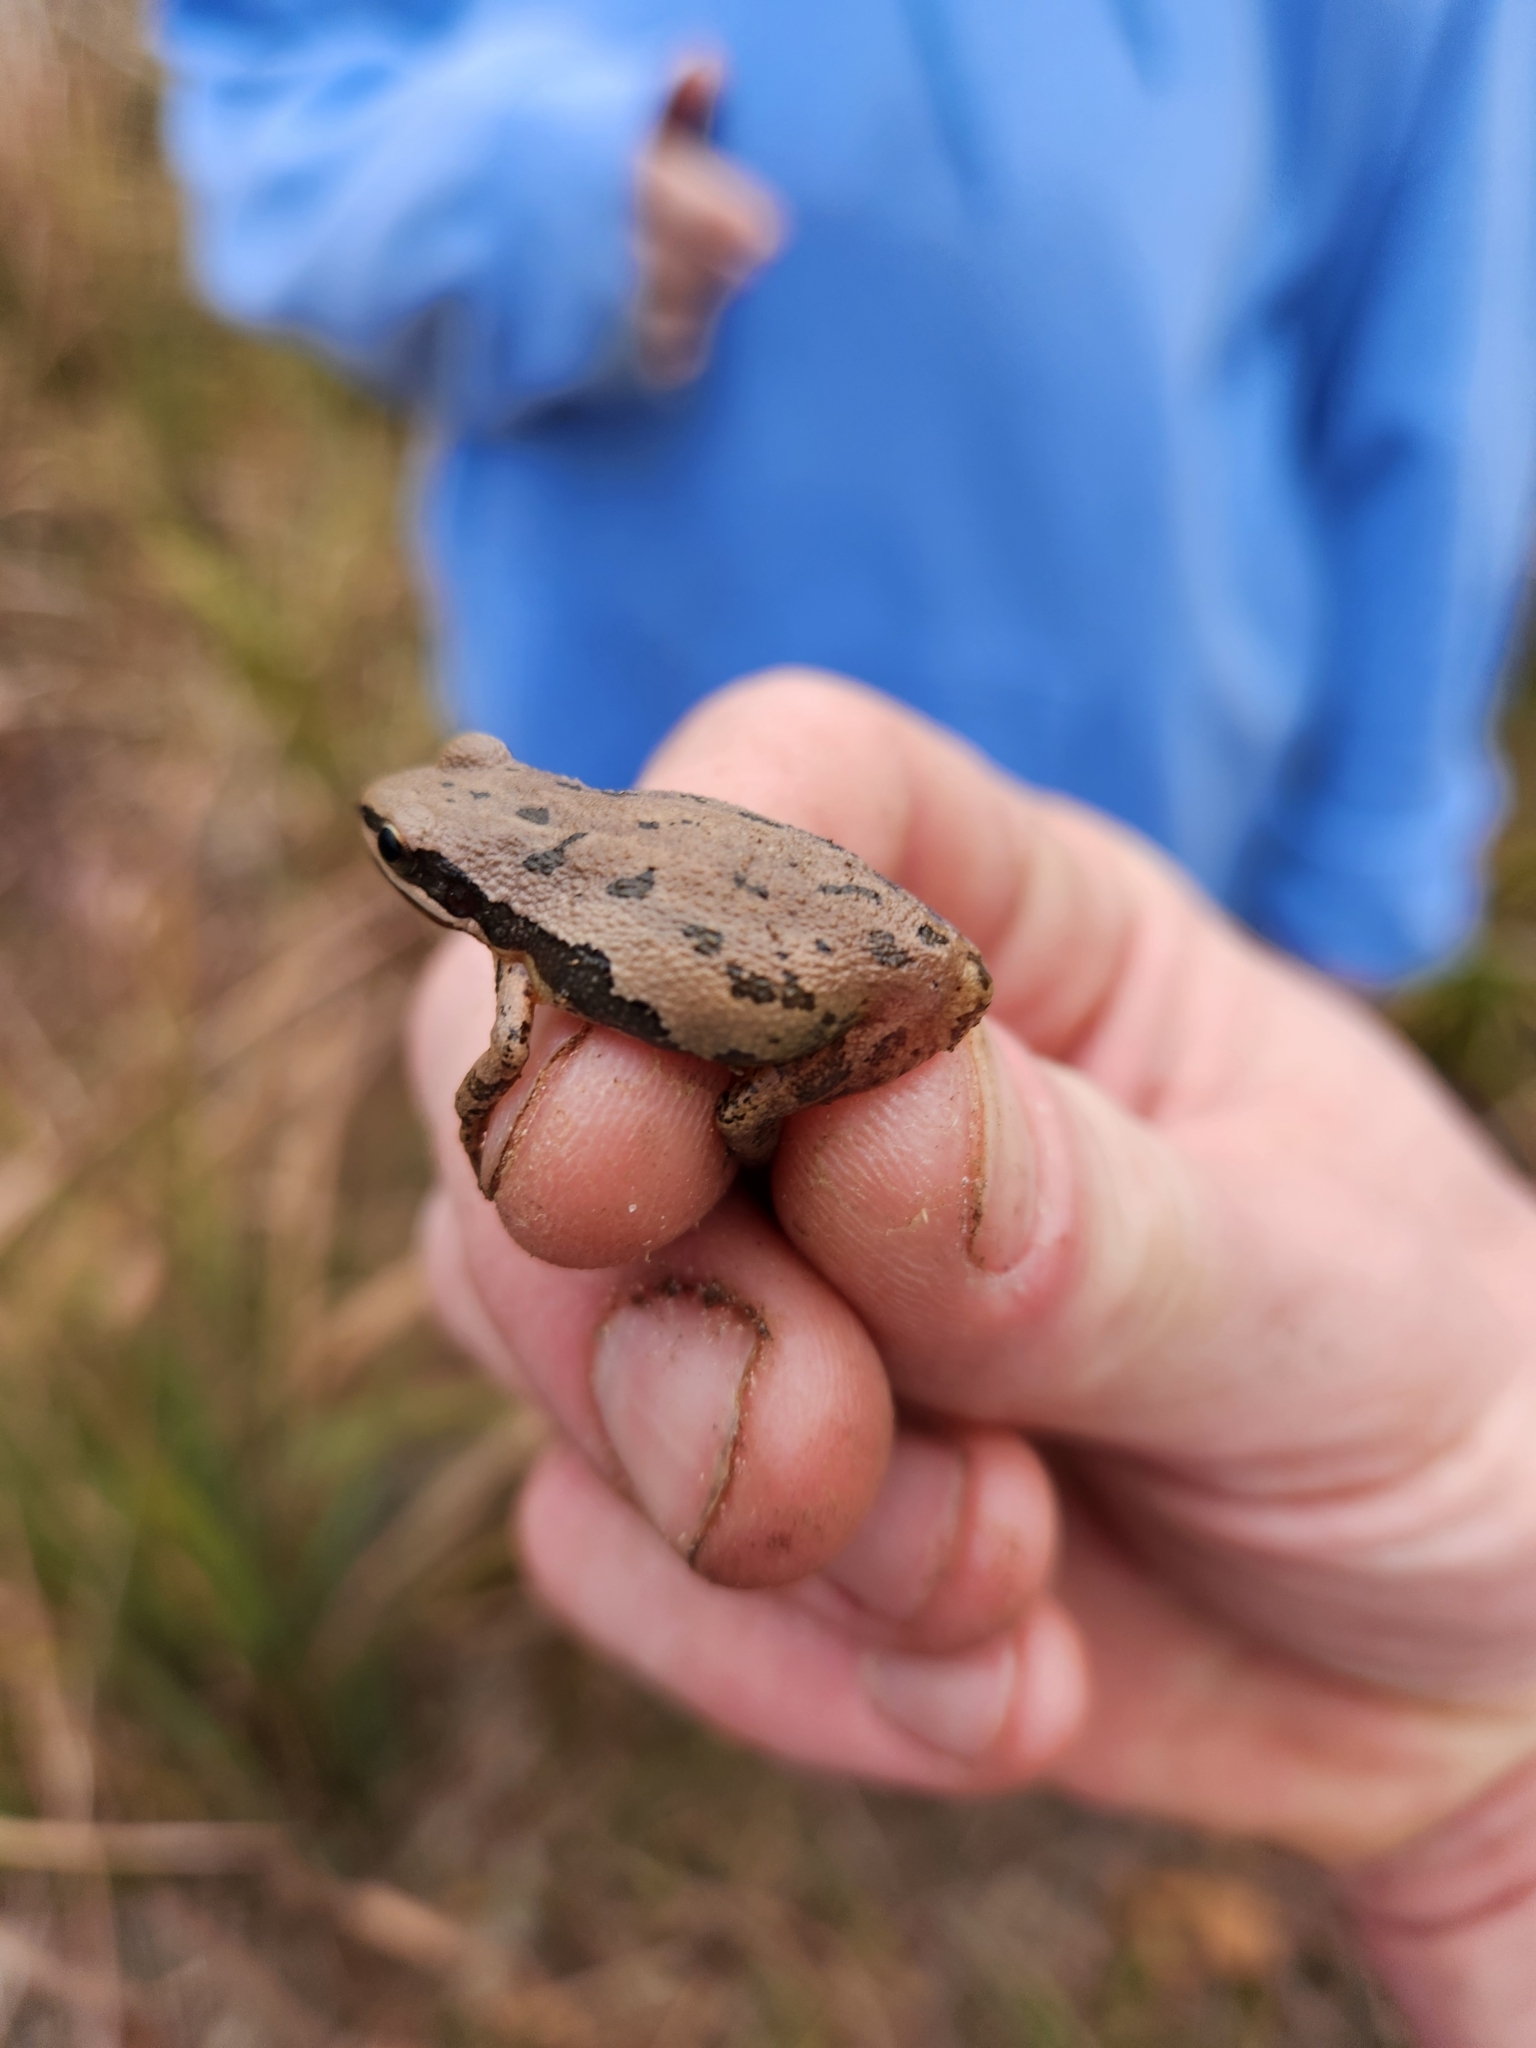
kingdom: Animalia
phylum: Chordata
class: Amphibia
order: Anura
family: Hylidae
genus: Pseudacris
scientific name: Pseudacris fouquettei
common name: Cajun chorus frog
